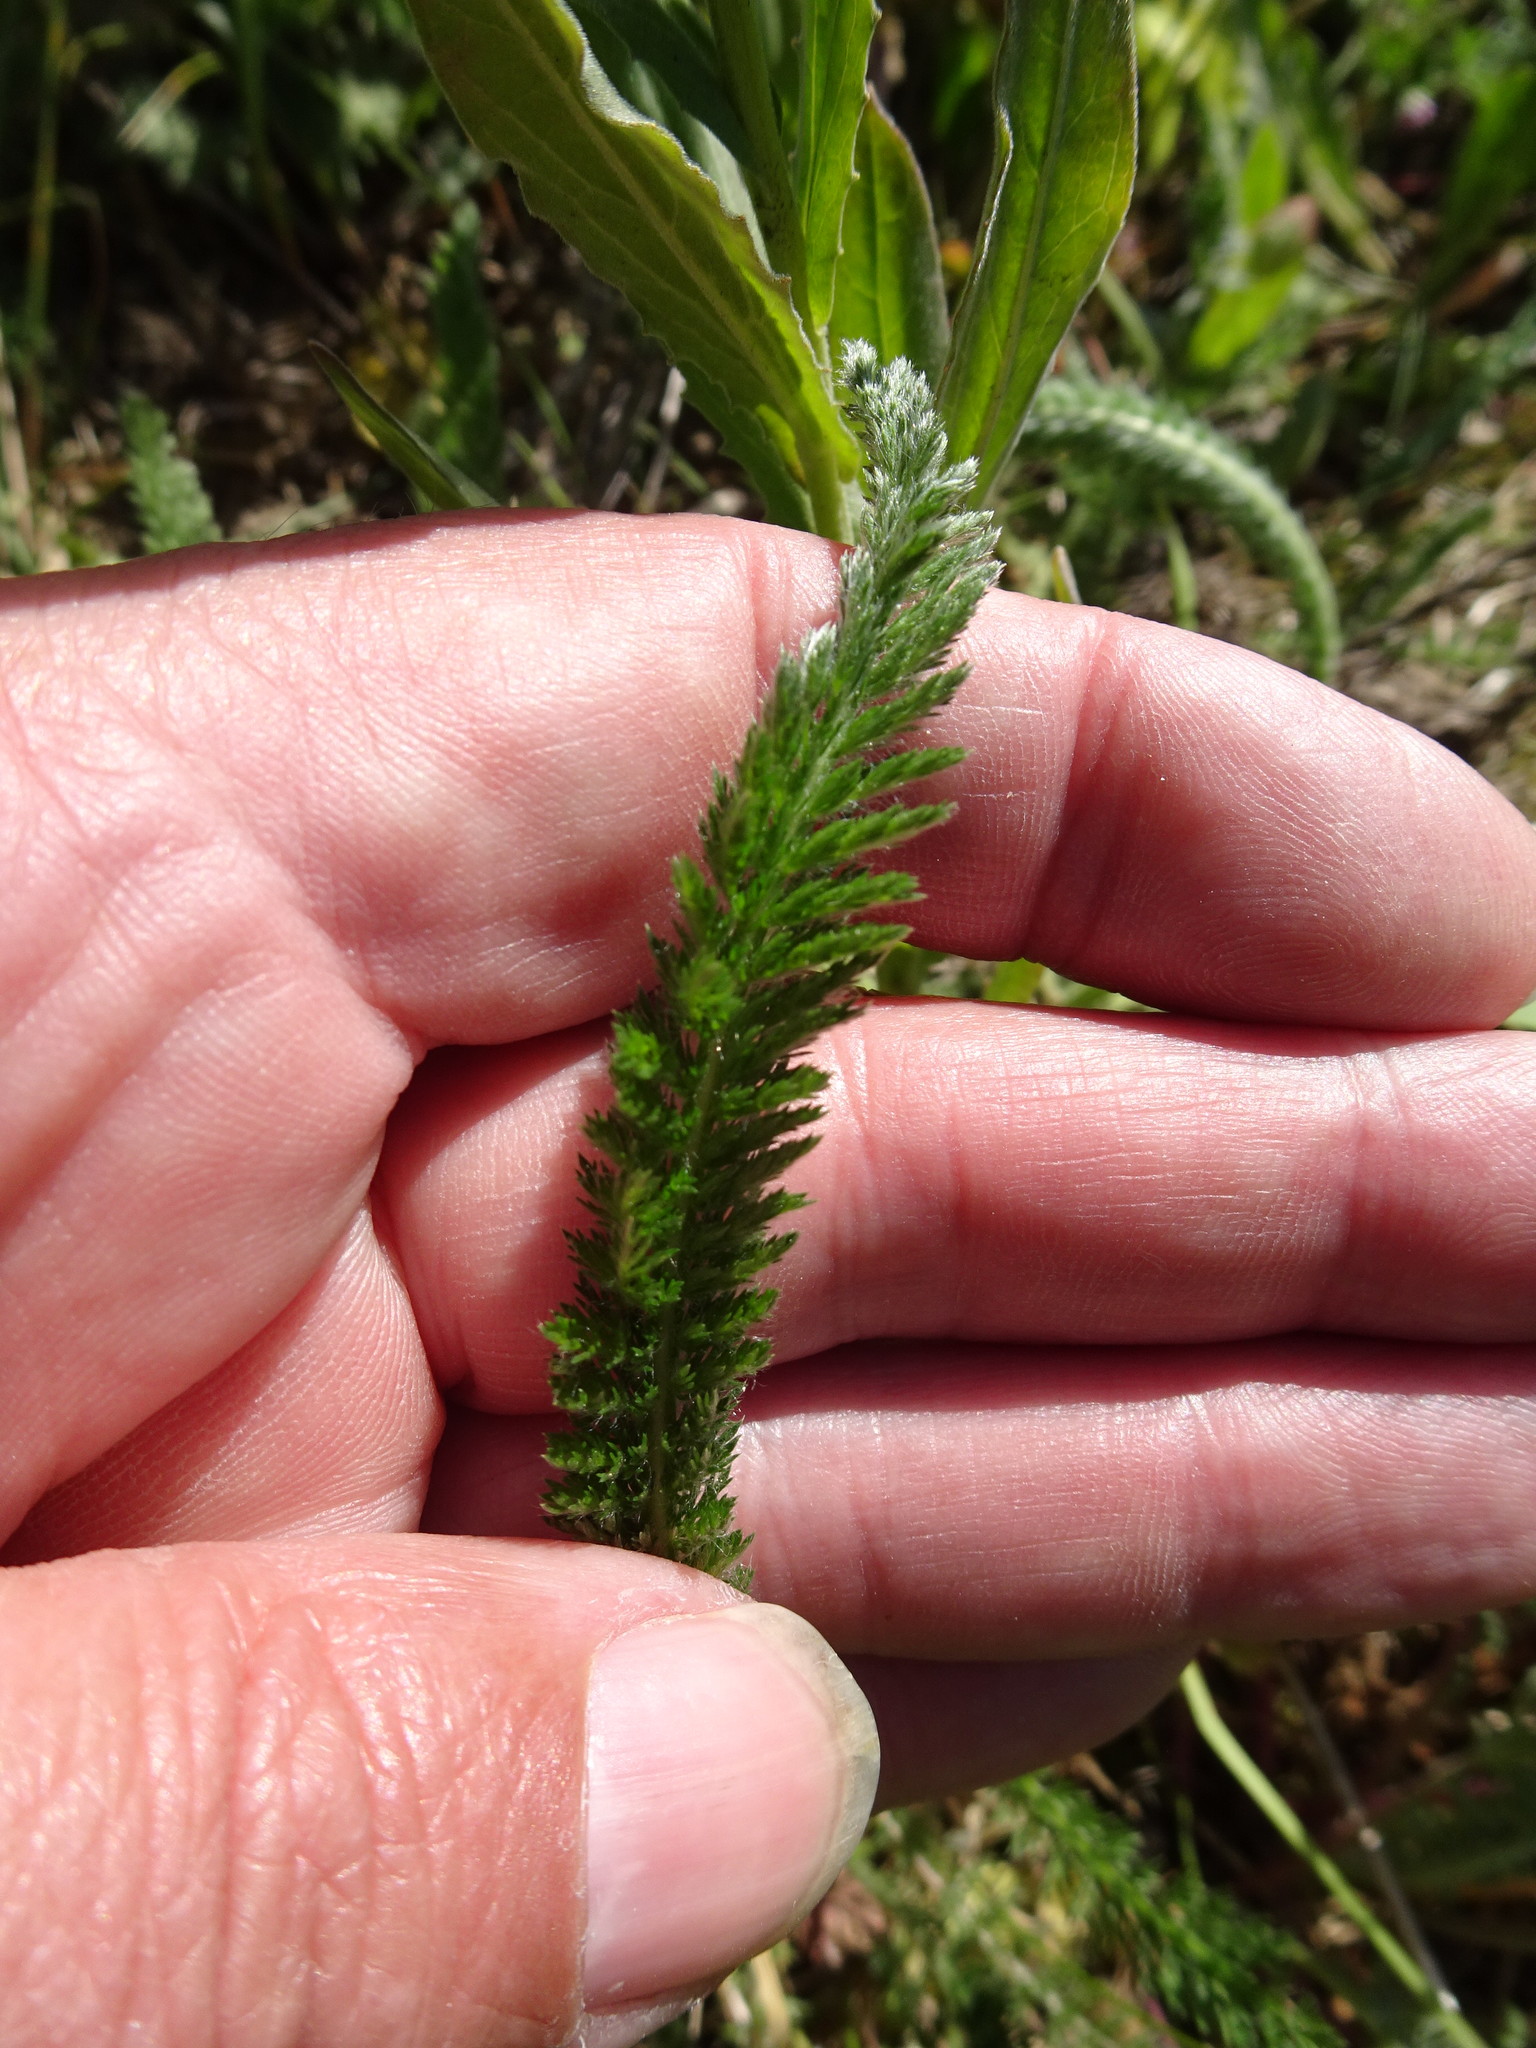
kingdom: Plantae
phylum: Tracheophyta
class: Magnoliopsida
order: Asterales
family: Asteraceae
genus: Achillea
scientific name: Achillea millefolium
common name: Yarrow
